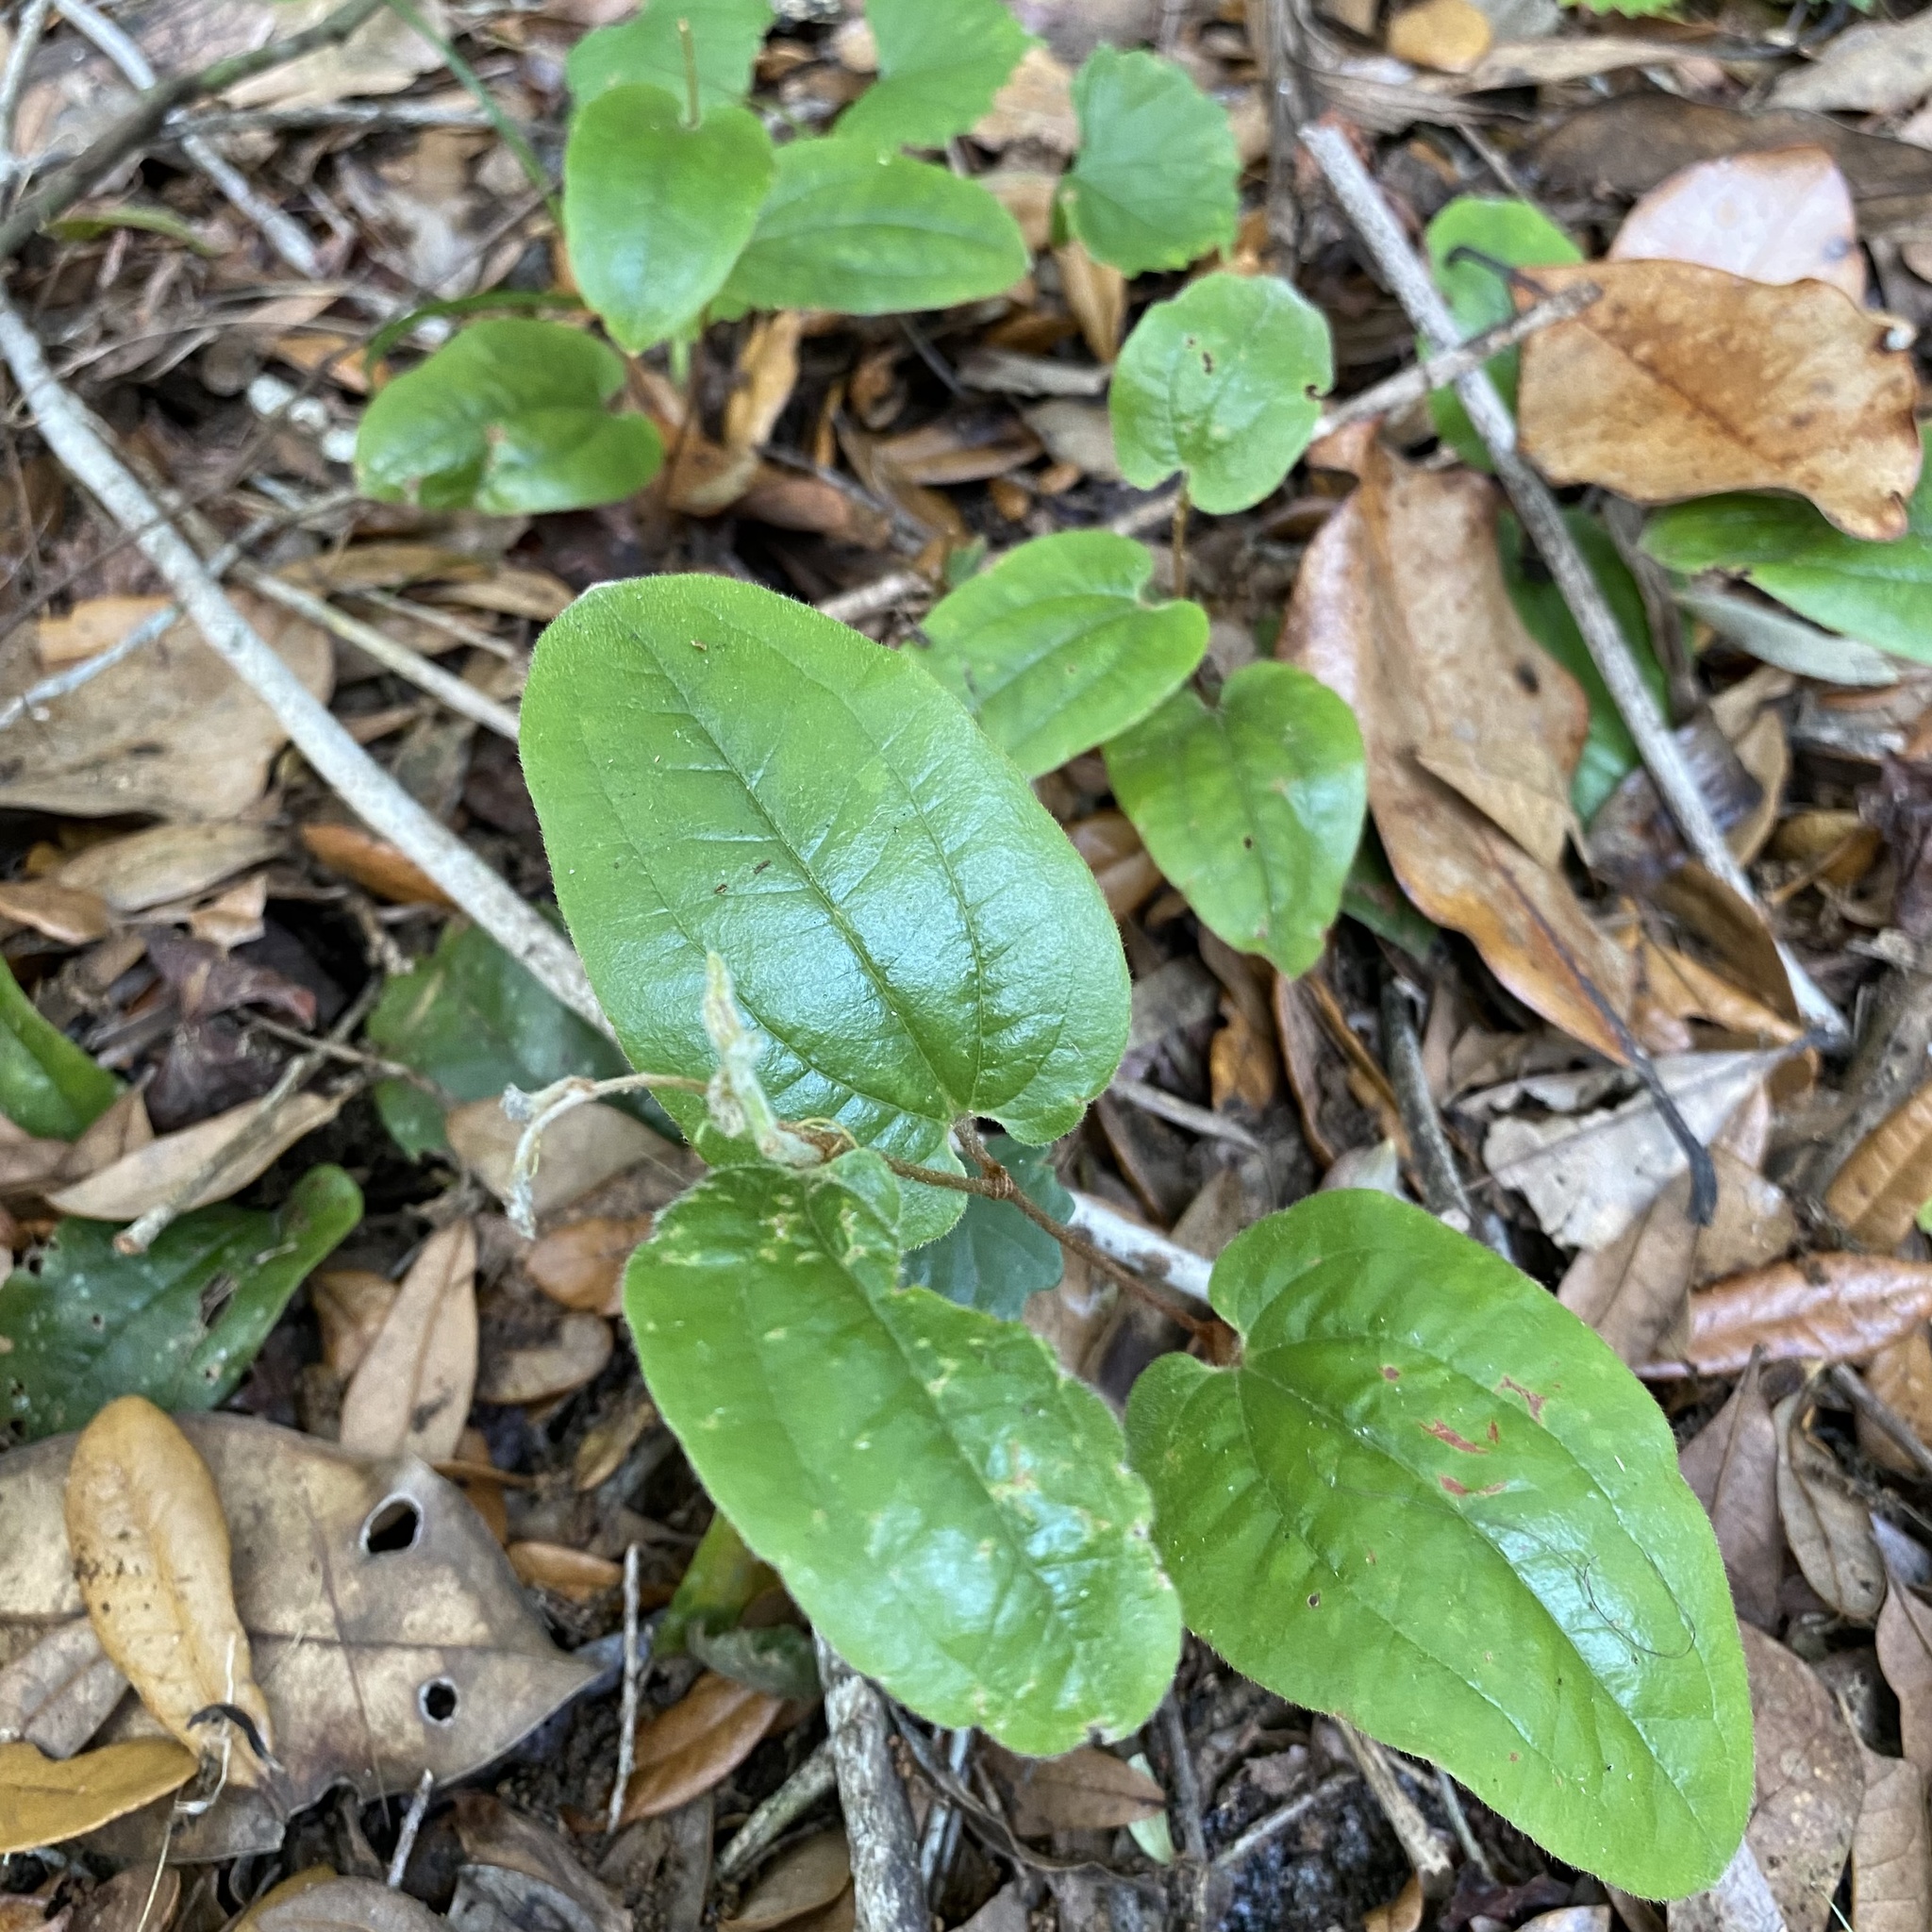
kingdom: Plantae
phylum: Tracheophyta
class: Liliopsida
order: Liliales
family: Smilacaceae
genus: Smilax
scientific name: Smilax pumila
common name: Sarsaparilla-vine
